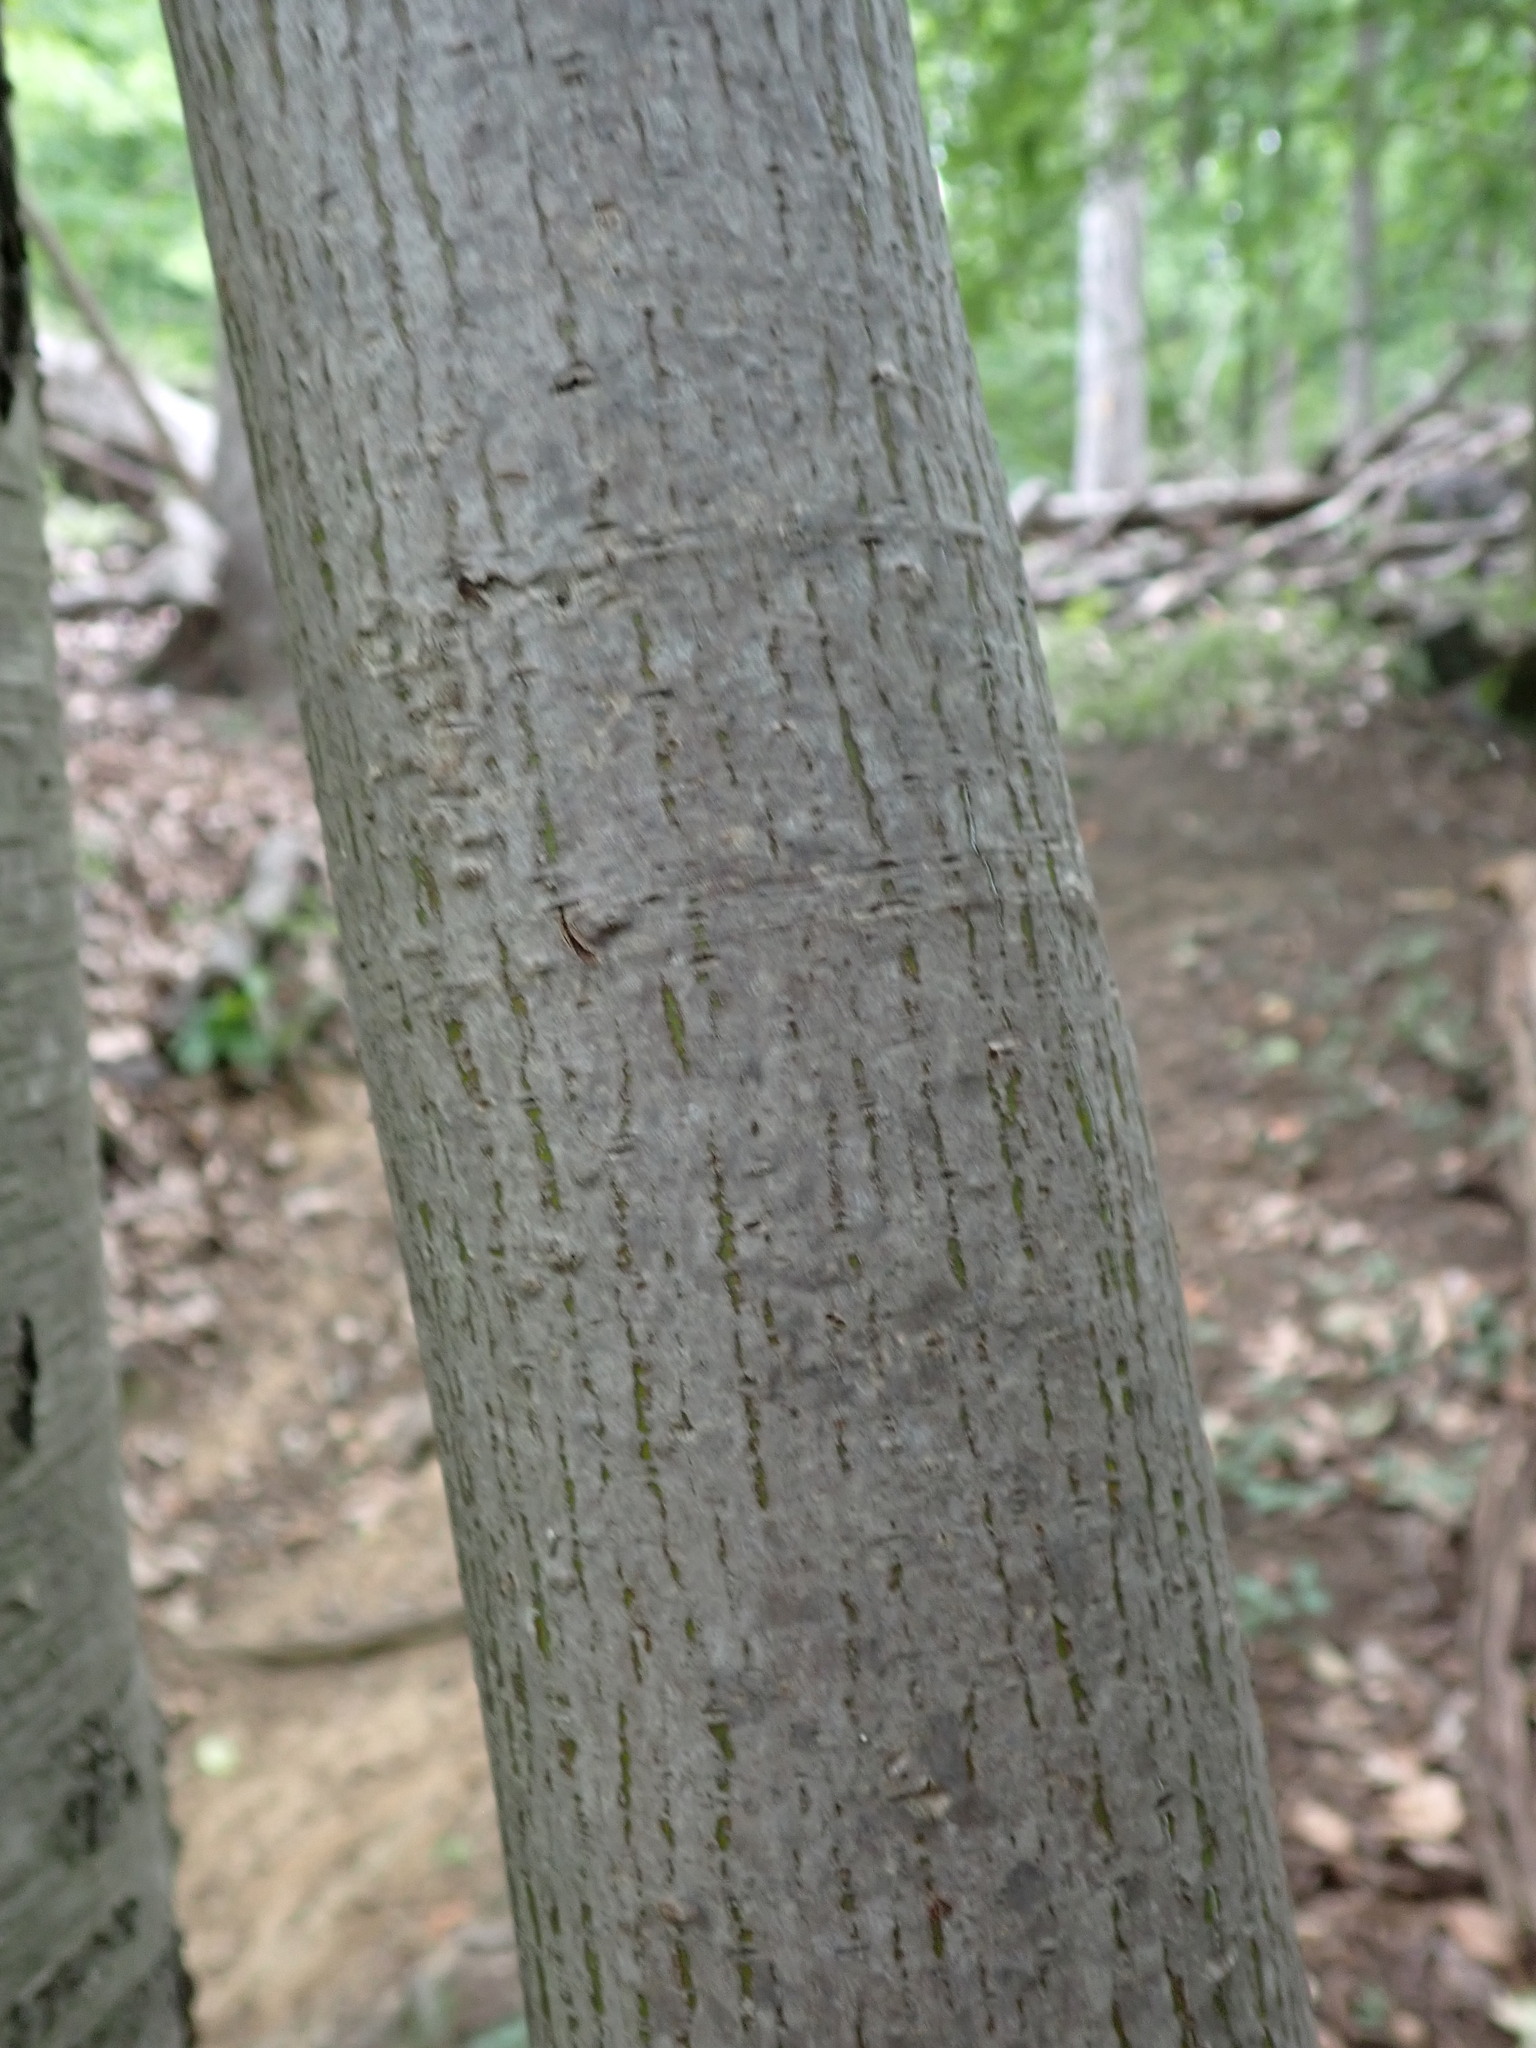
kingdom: Plantae
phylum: Tracheophyta
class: Magnoliopsida
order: Sapindales
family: Sapindaceae
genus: Acer
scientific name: Acer pensylvanicum
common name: Moosewood
